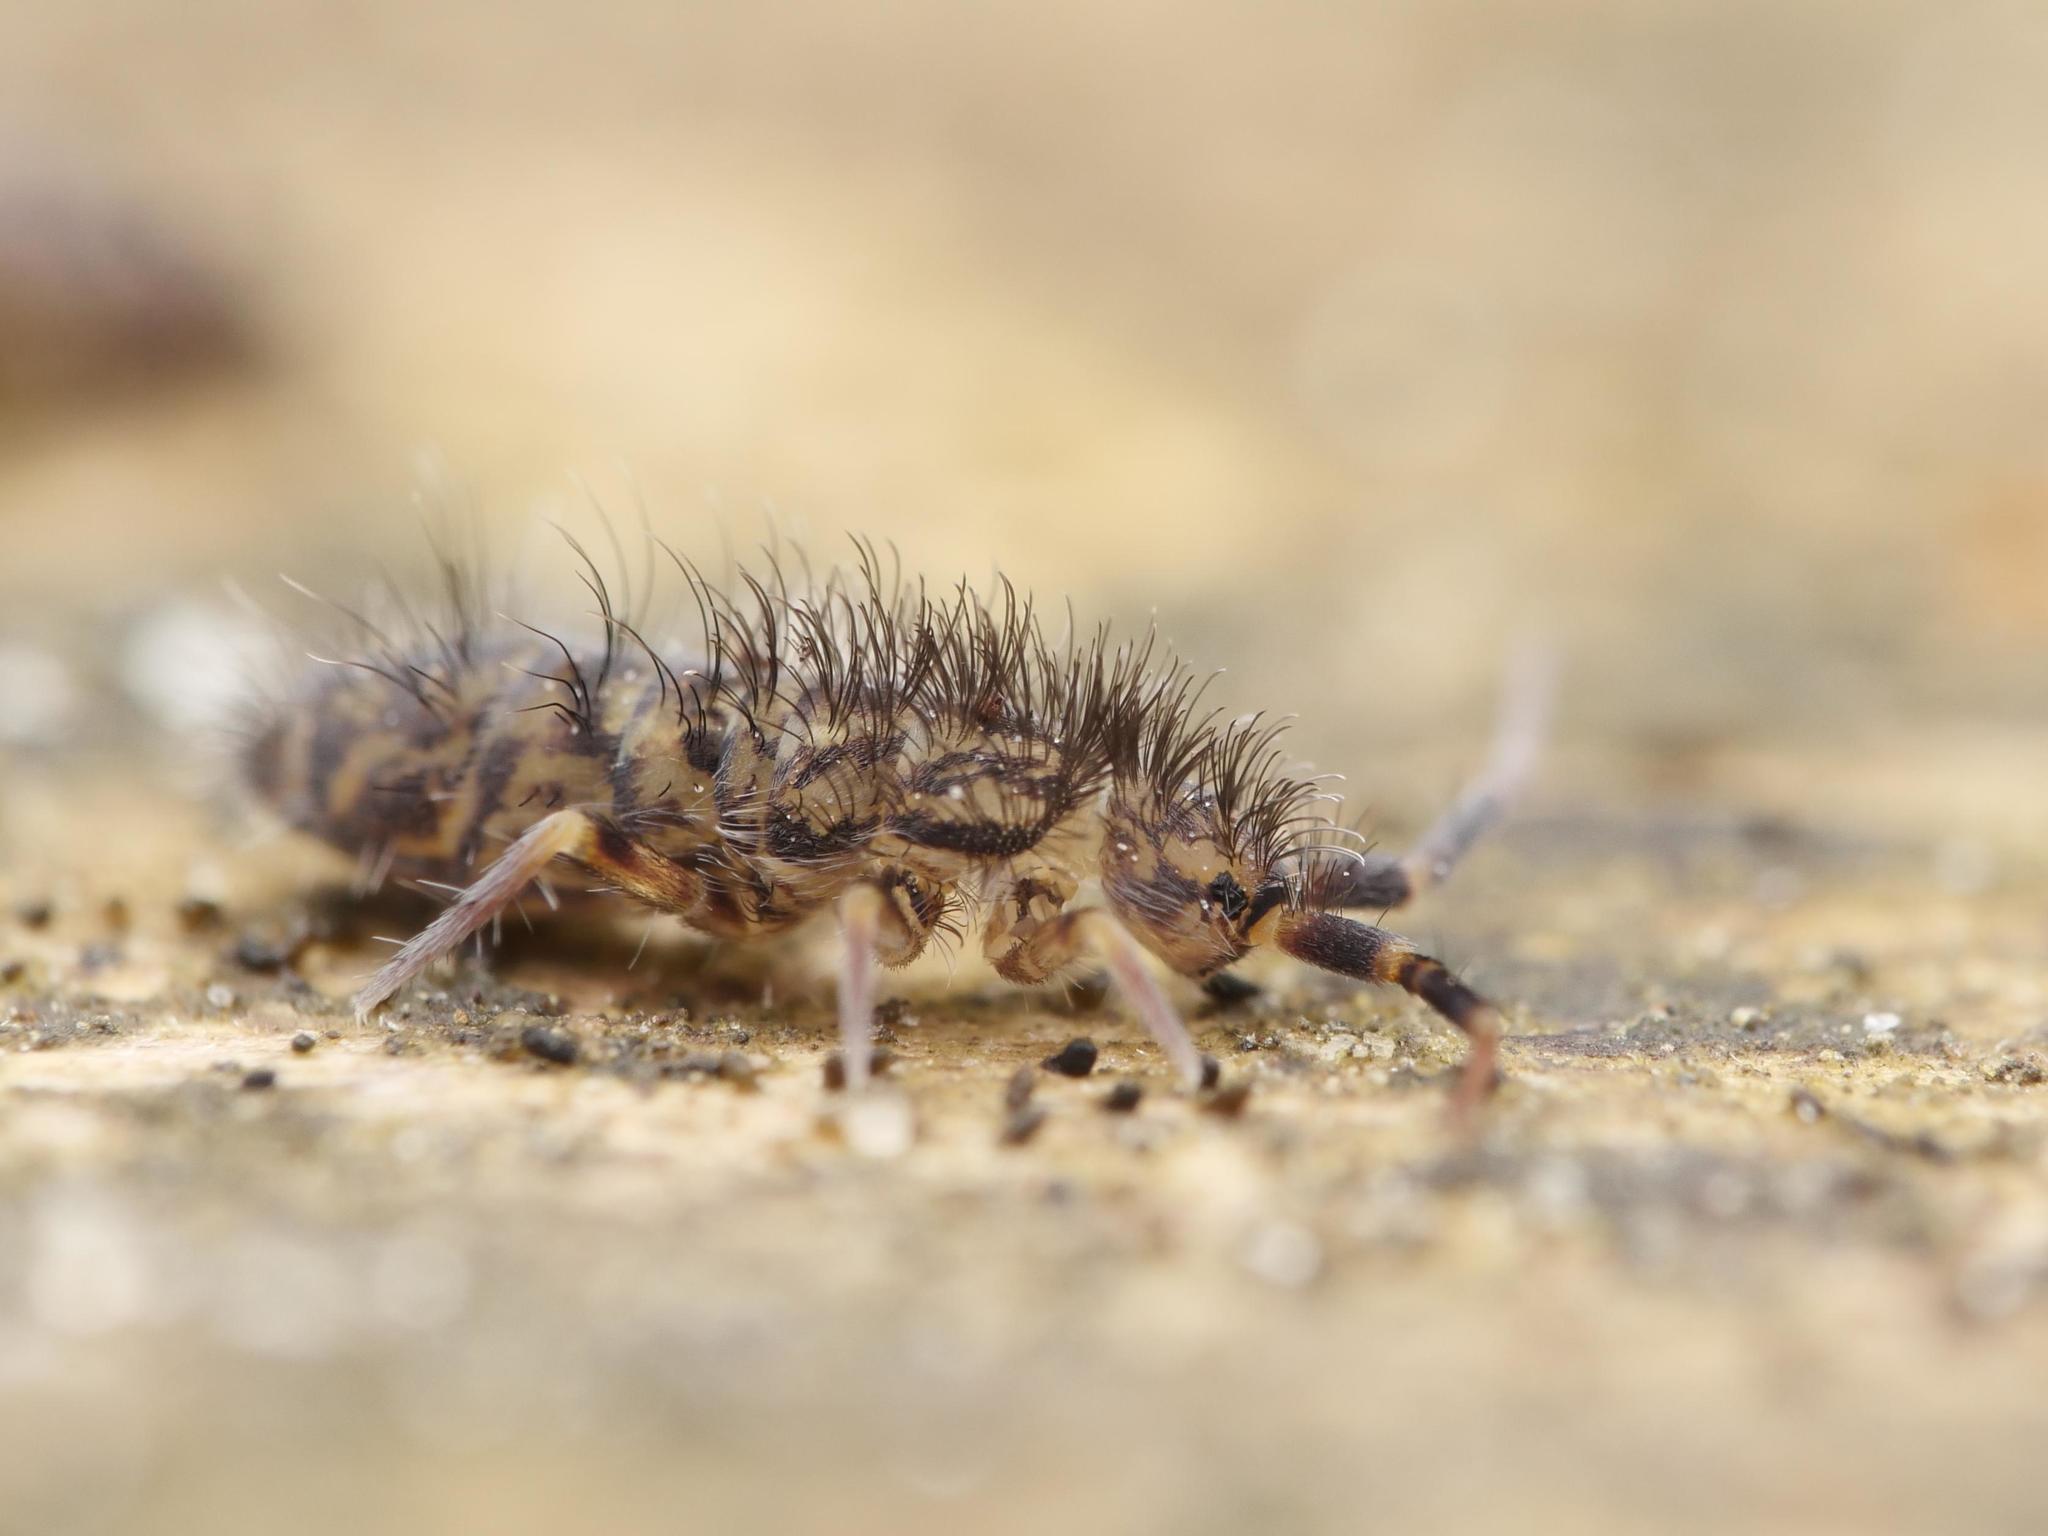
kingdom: Animalia
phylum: Arthropoda
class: Collembola
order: Entomobryomorpha
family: Orchesellidae
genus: Orchesella
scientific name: Orchesella villosa
